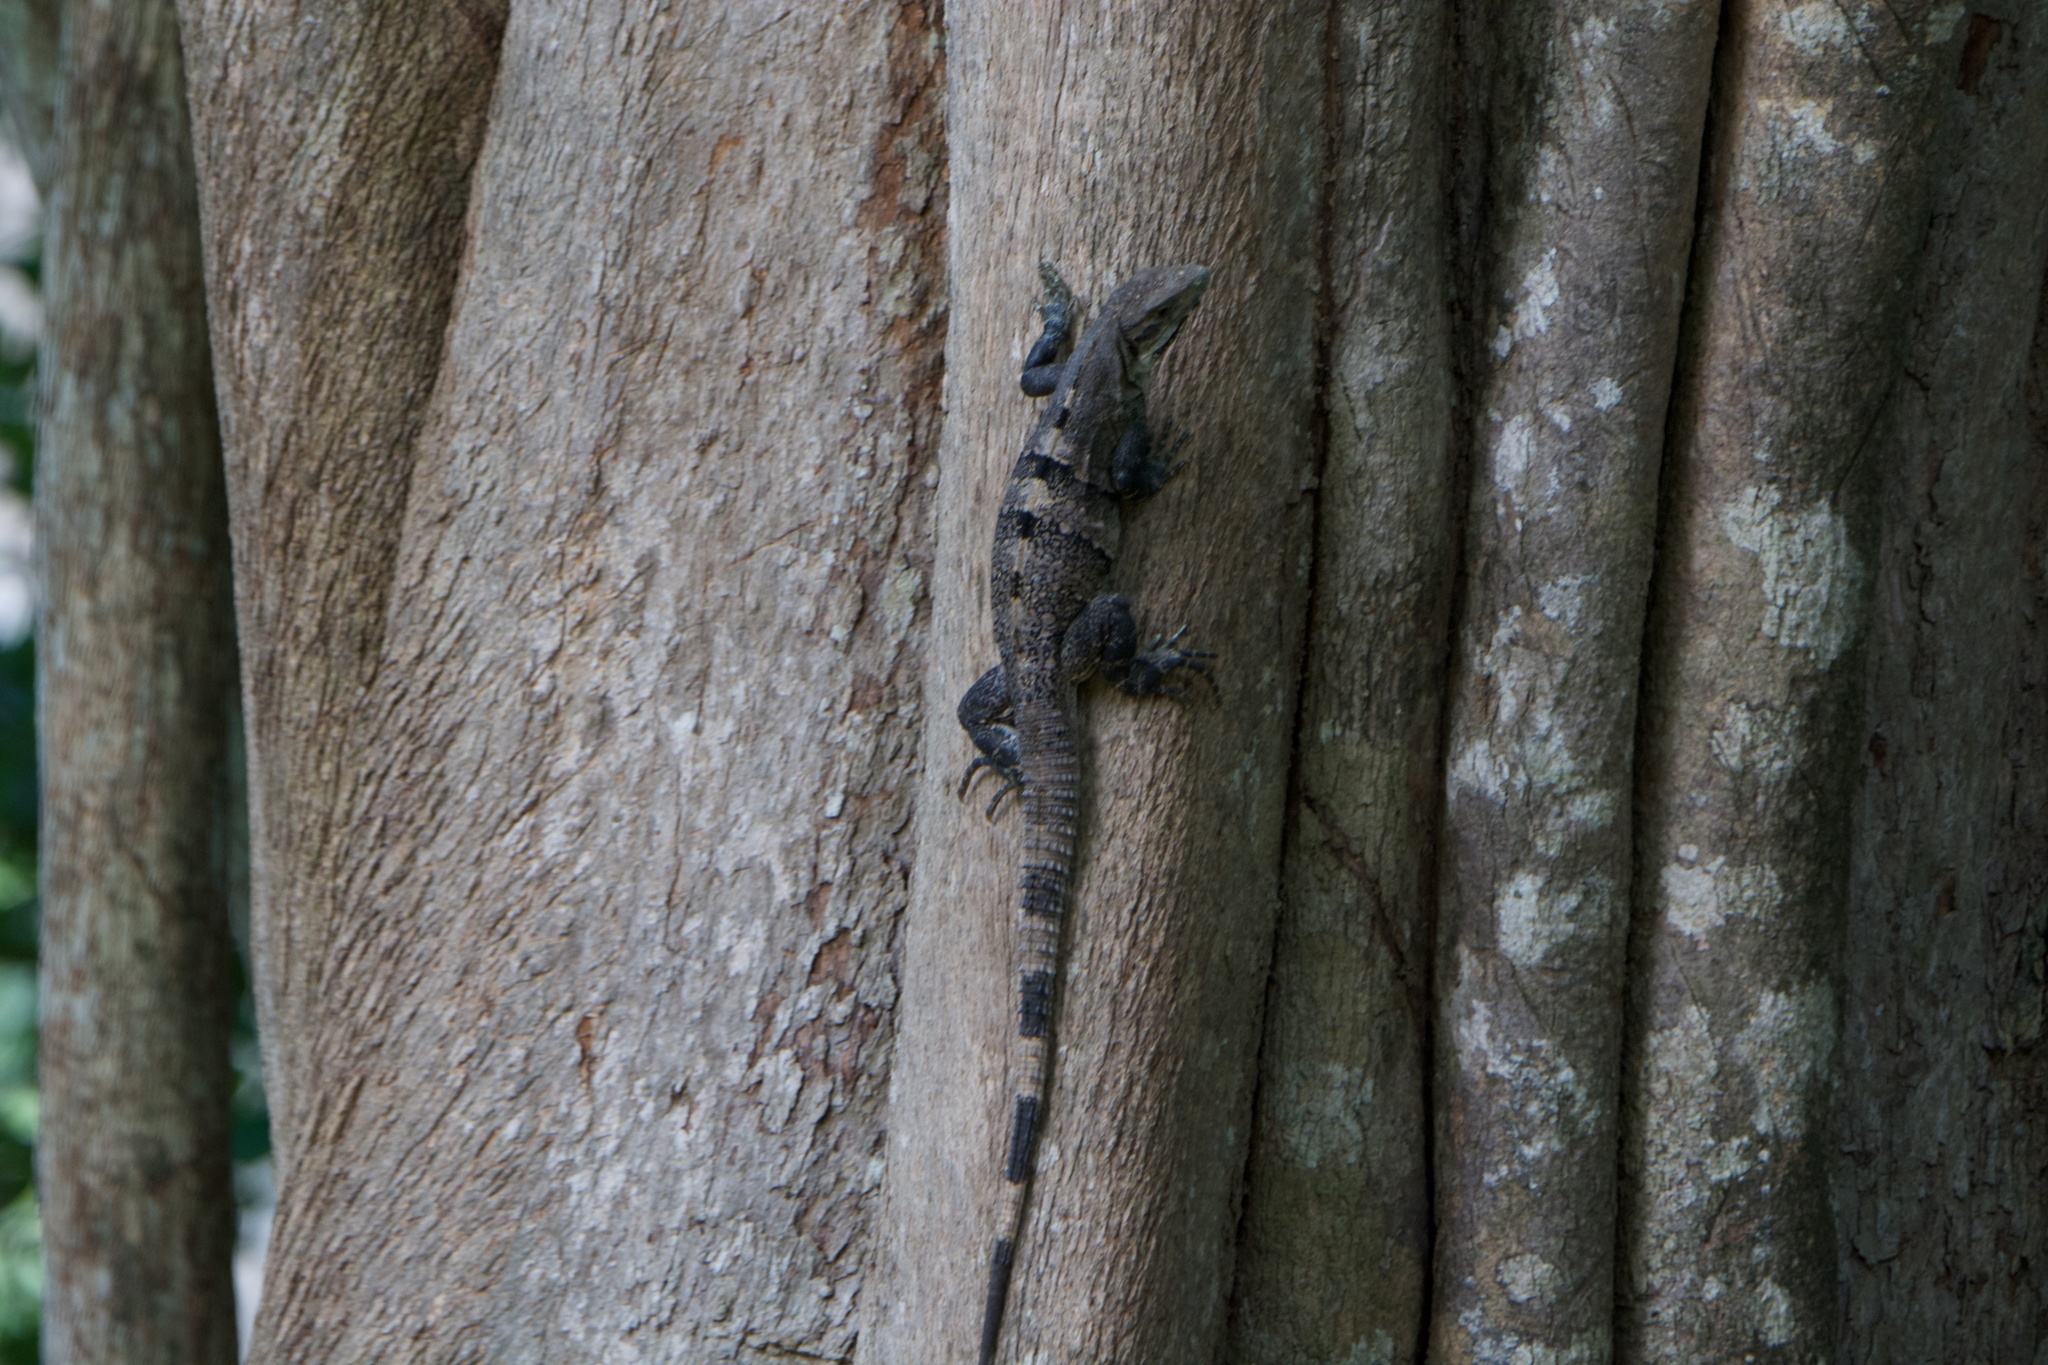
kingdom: Animalia
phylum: Chordata
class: Squamata
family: Iguanidae
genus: Ctenosaura
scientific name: Ctenosaura similis
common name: Black spiny-tailed iguana
